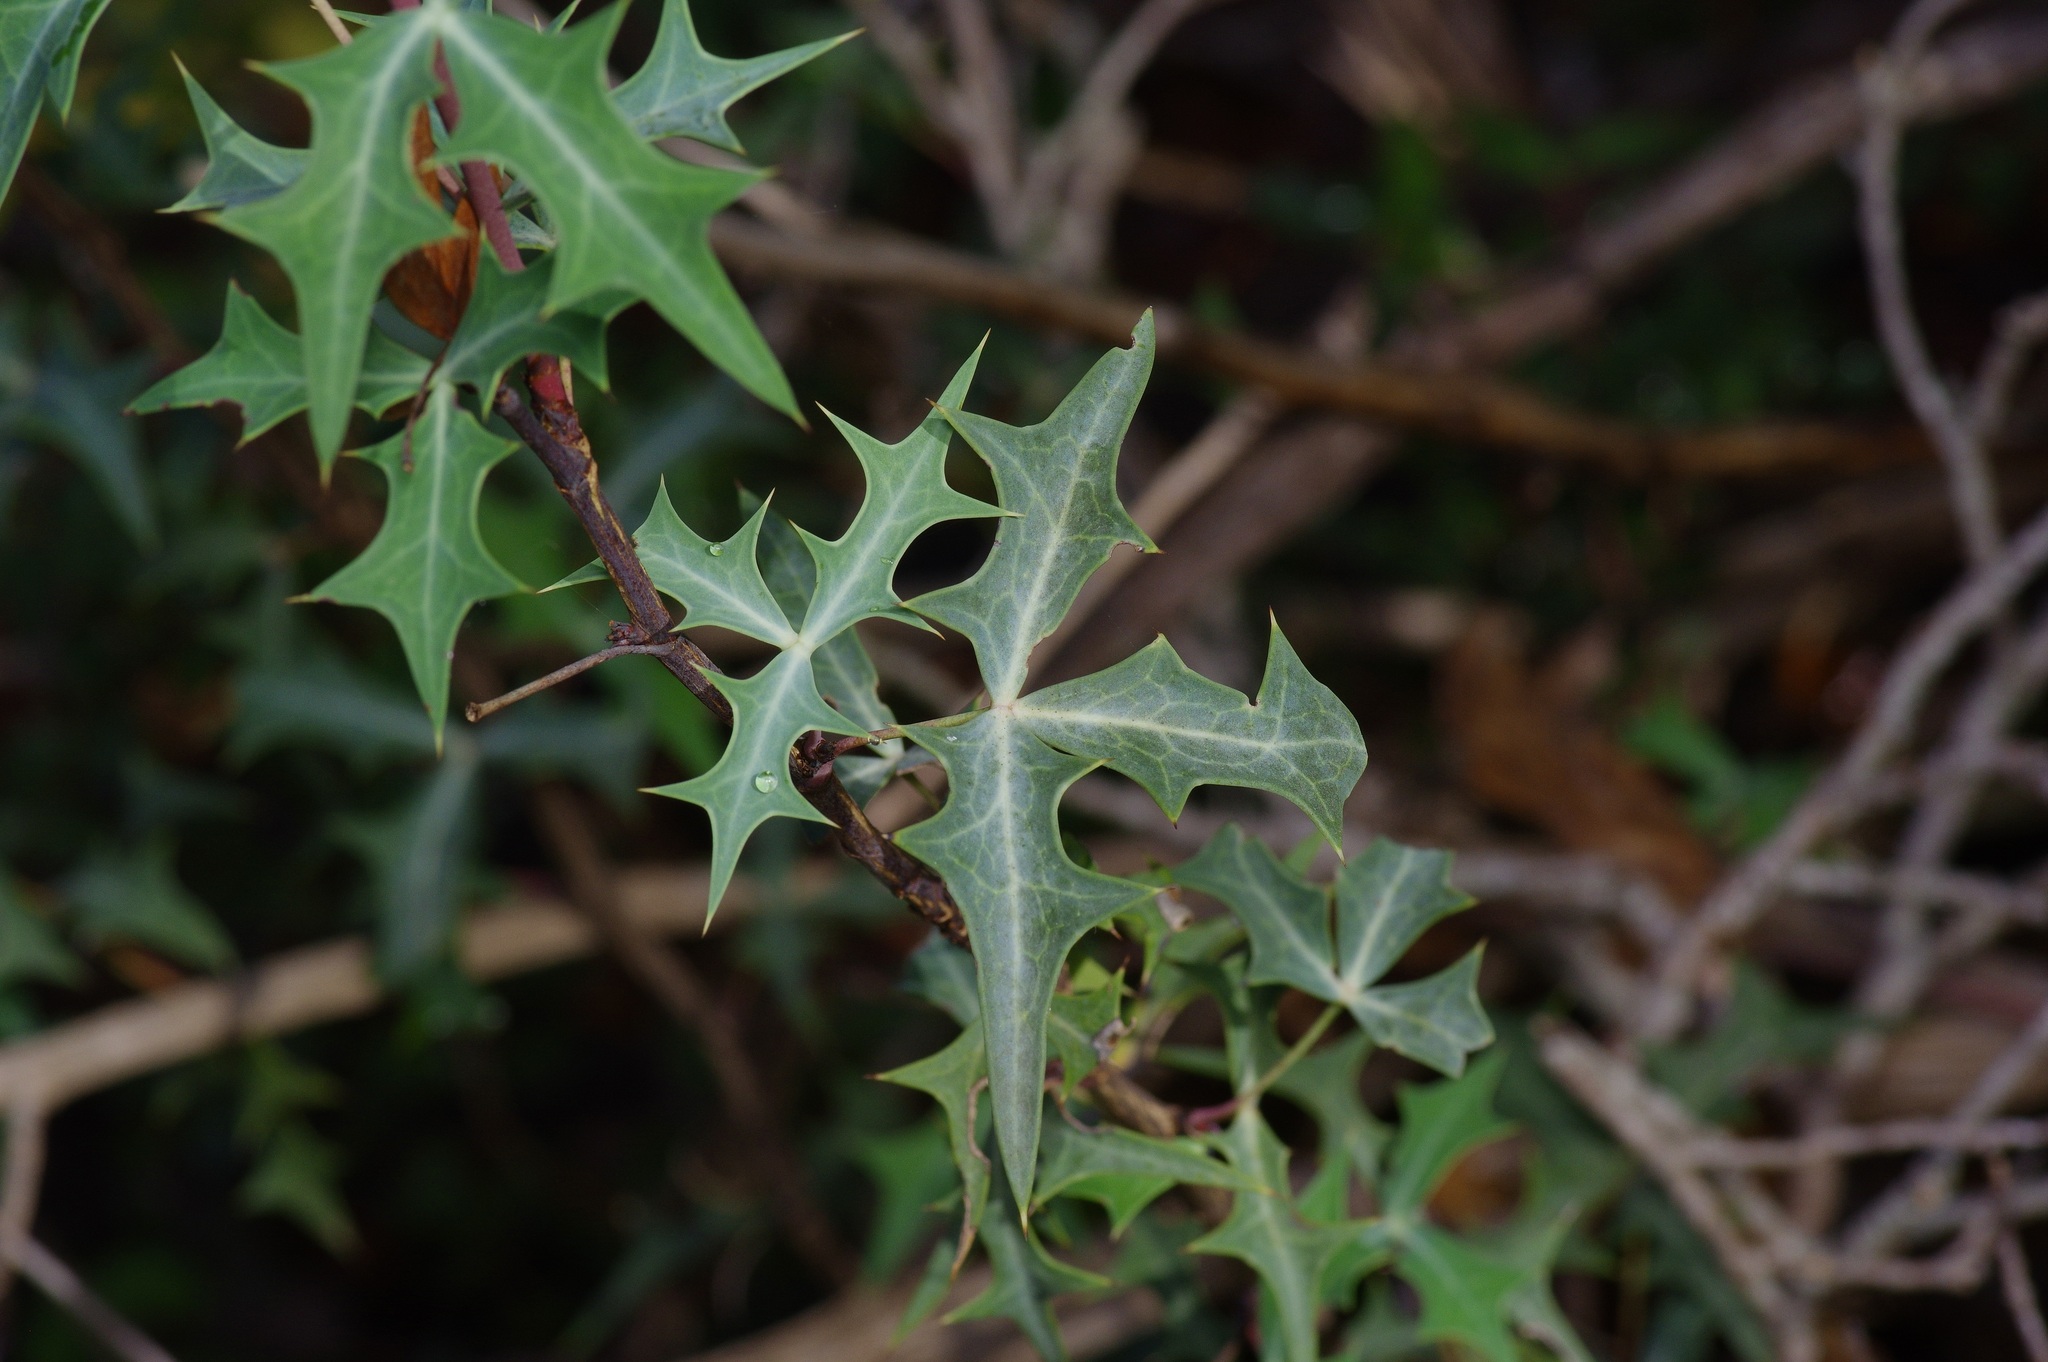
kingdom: Plantae
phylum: Tracheophyta
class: Magnoliopsida
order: Ranunculales
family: Berberidaceae
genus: Alloberberis
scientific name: Alloberberis trifoliolata
